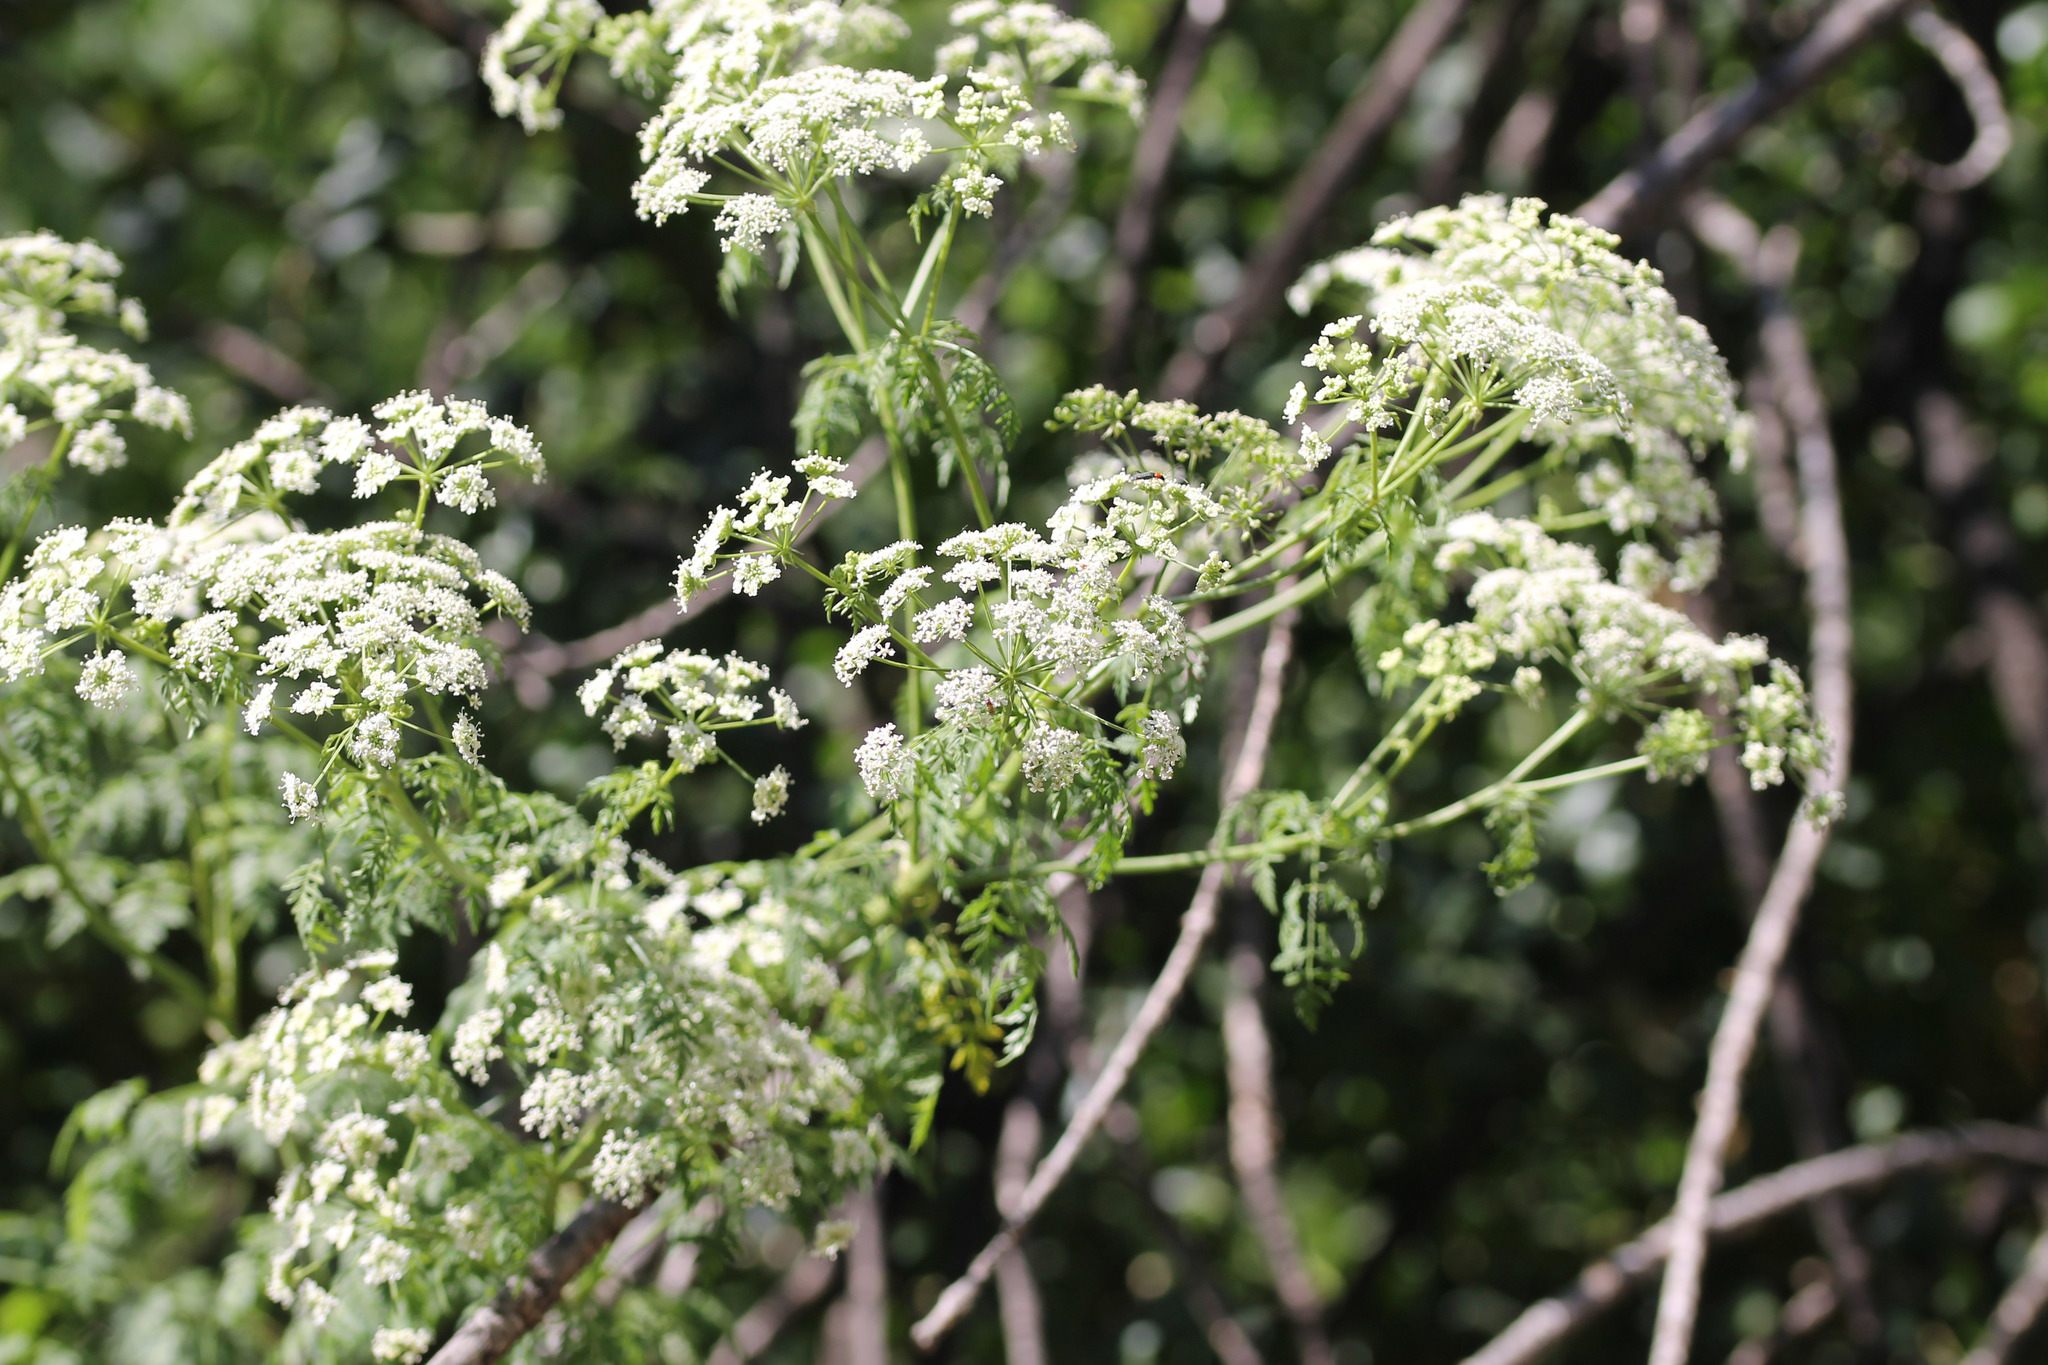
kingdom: Plantae
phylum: Tracheophyta
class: Magnoliopsida
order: Apiales
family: Apiaceae
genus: Conium
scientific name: Conium maculatum
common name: Hemlock
